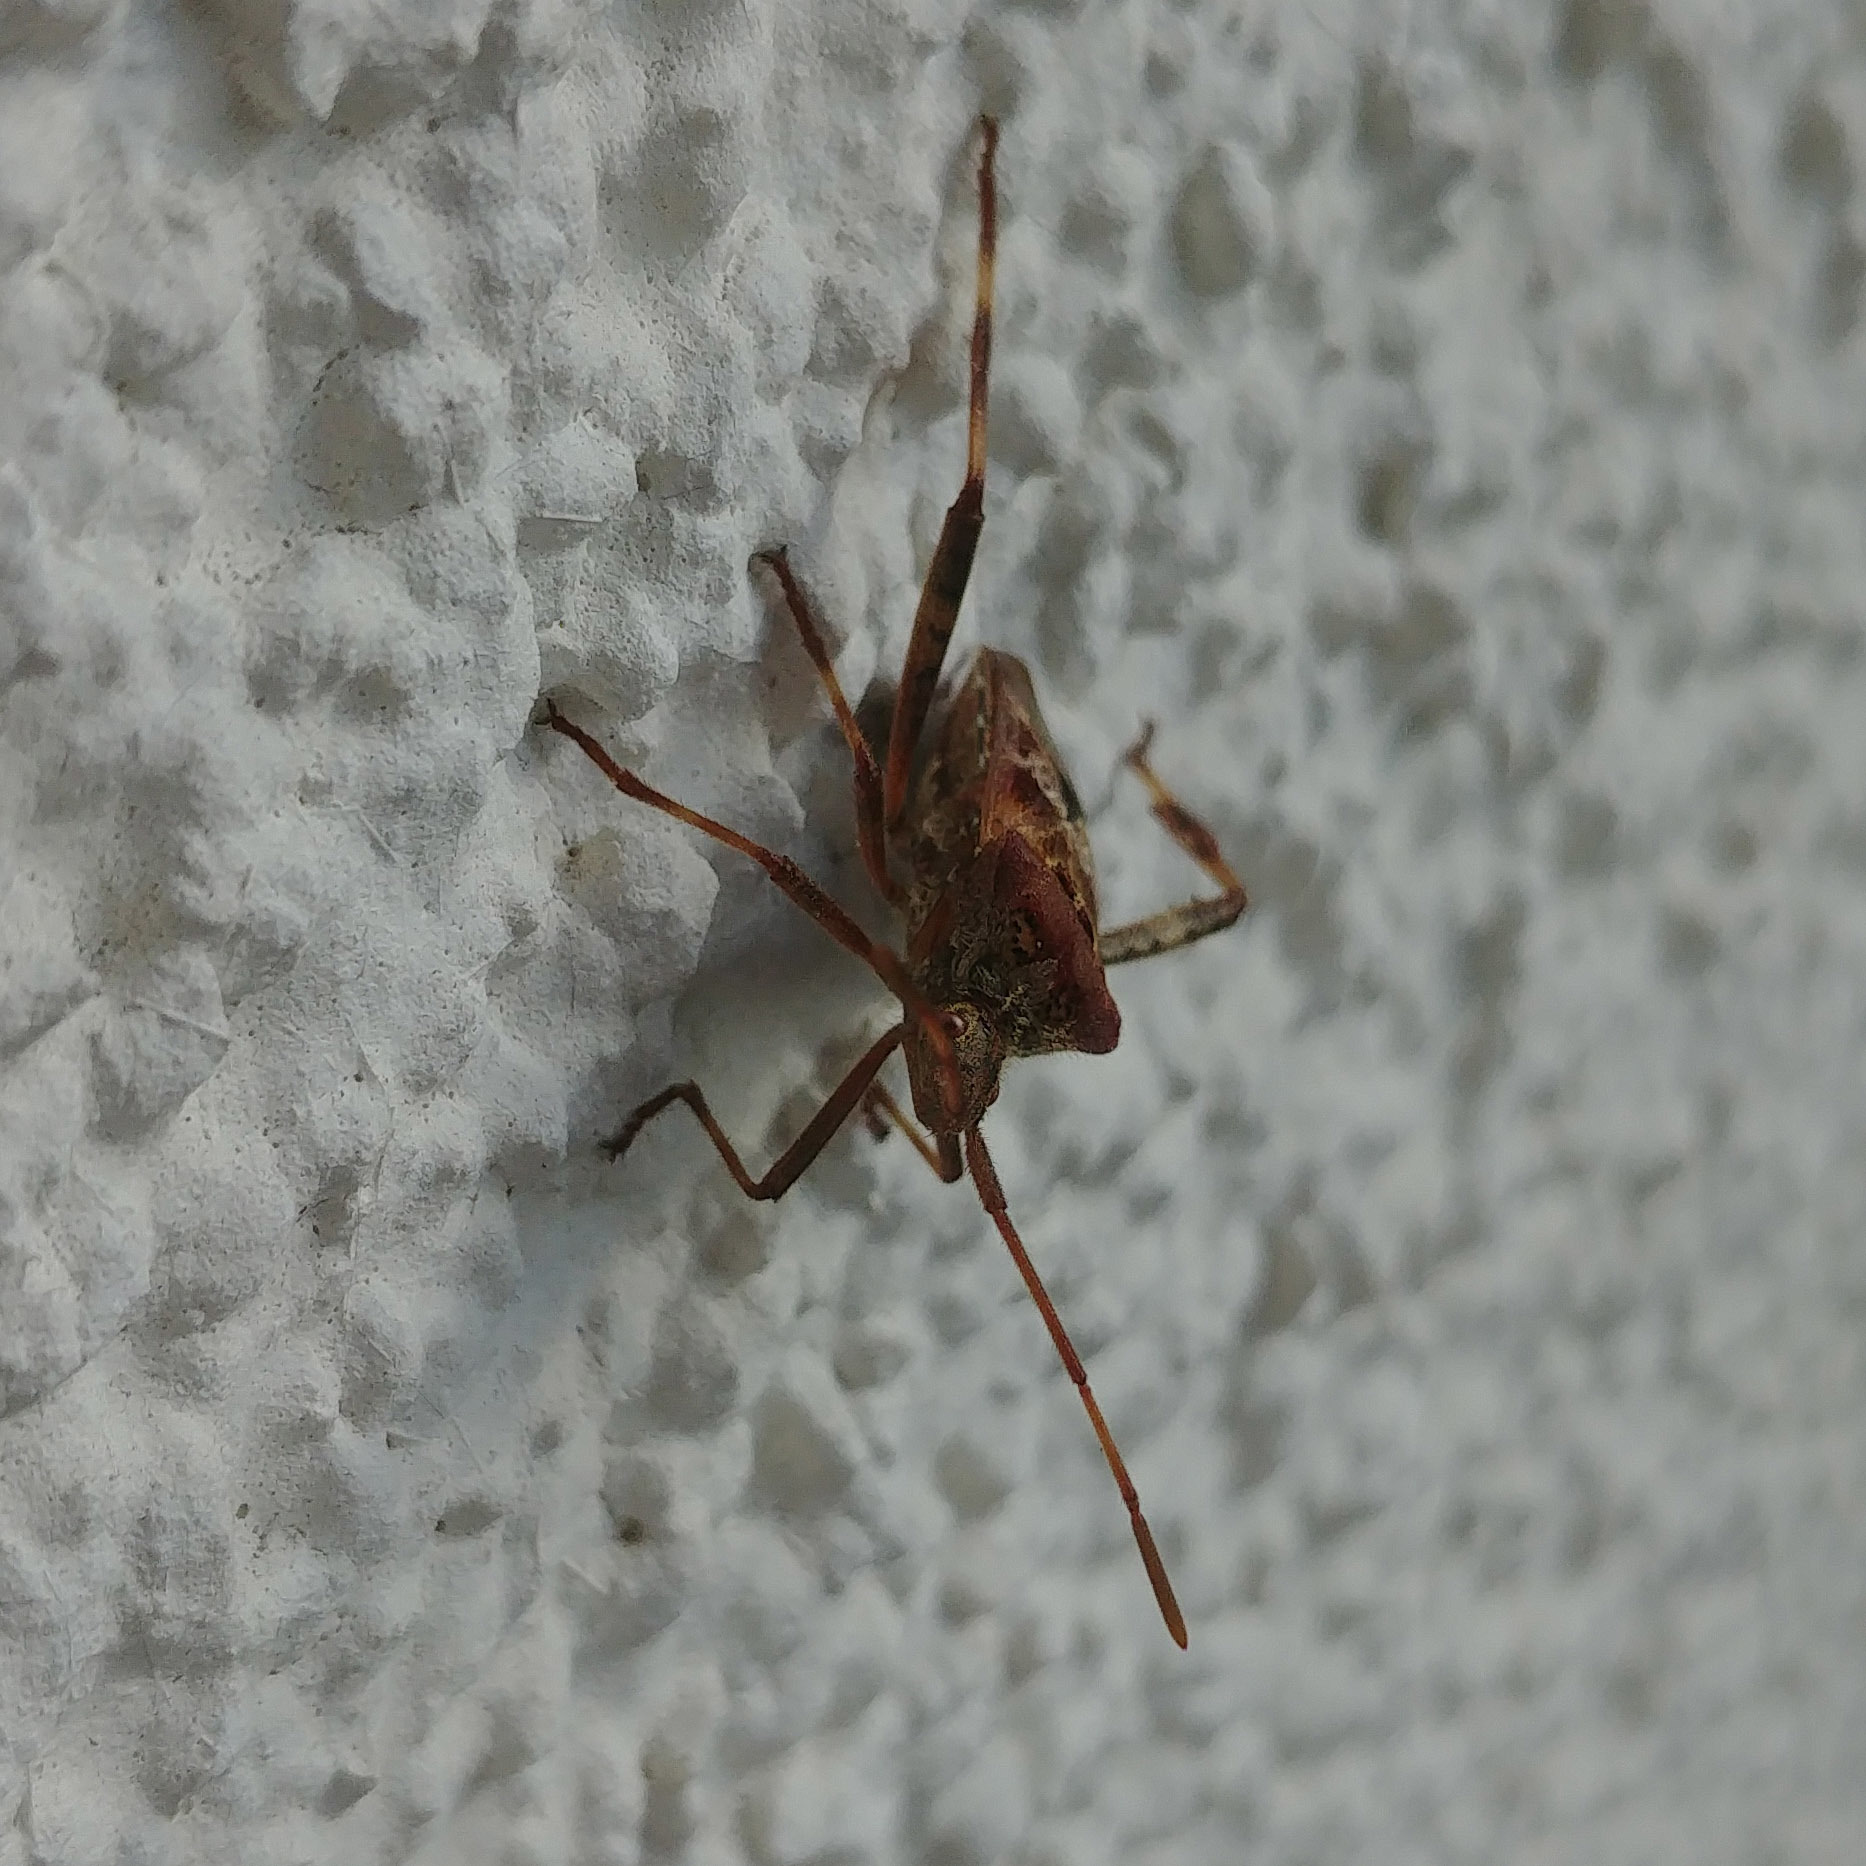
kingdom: Animalia
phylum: Arthropoda
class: Insecta
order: Hemiptera
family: Coreidae
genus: Leptoglossus
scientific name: Leptoglossus occidentalis
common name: Western conifer-seed bug
